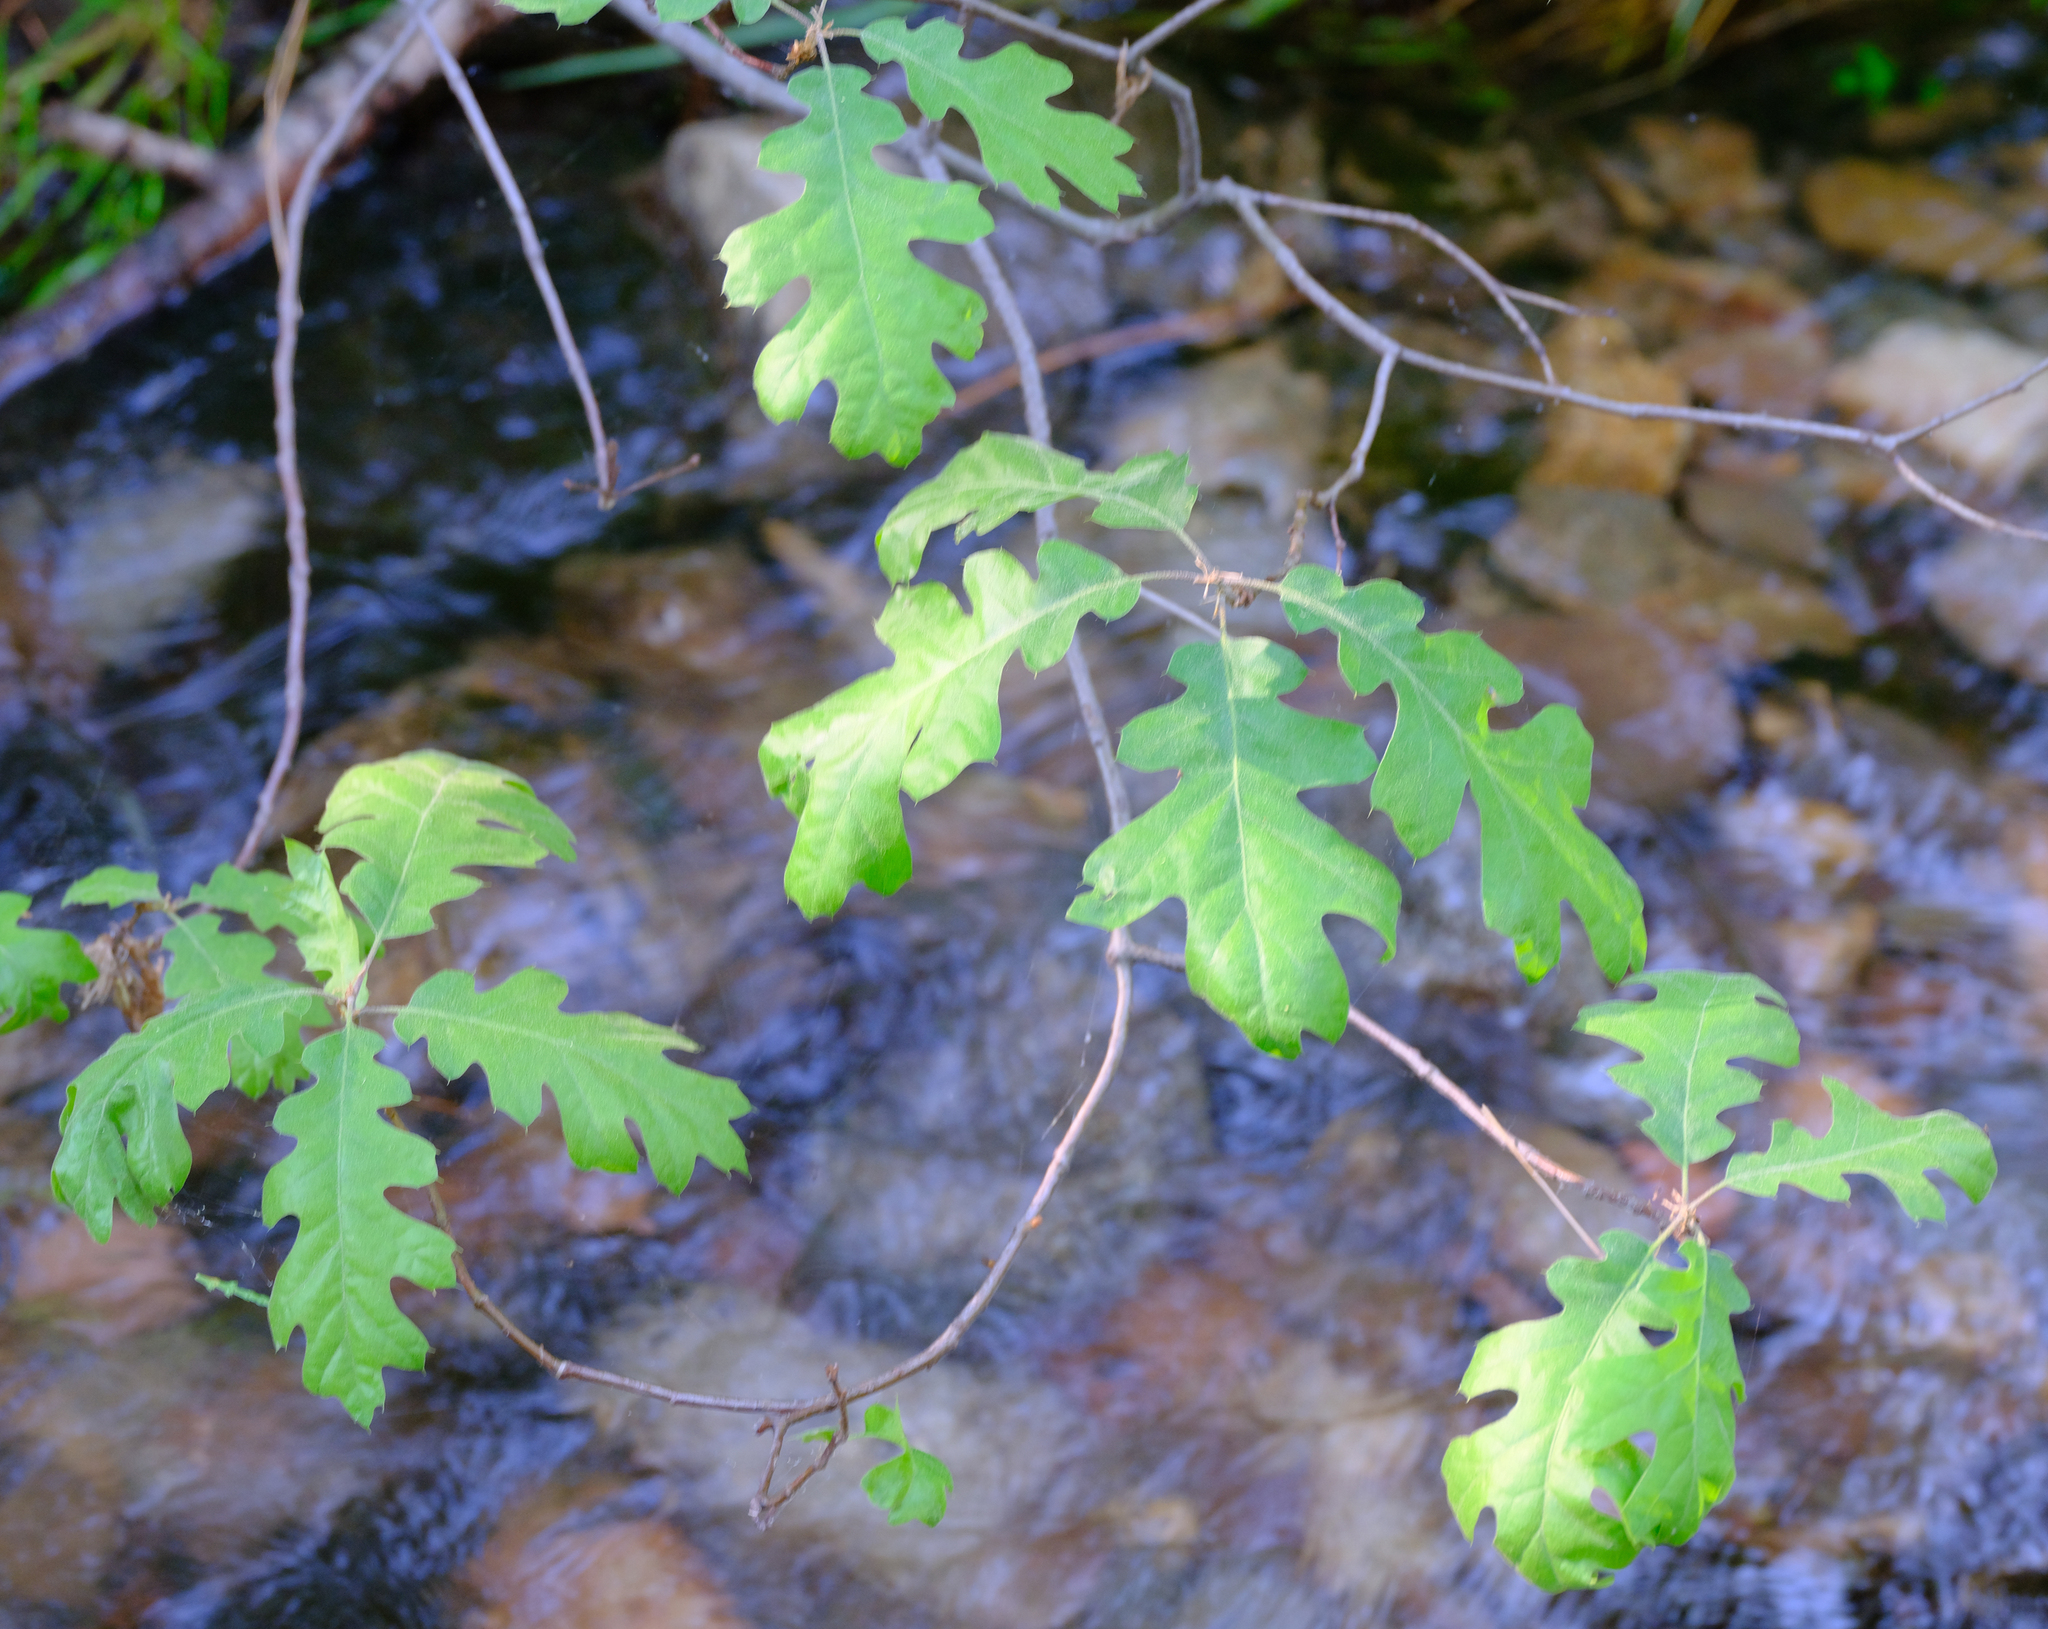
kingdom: Plantae
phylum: Tracheophyta
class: Magnoliopsida
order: Fagales
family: Fagaceae
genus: Quercus
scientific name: Quercus kelloggii
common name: California black oak
